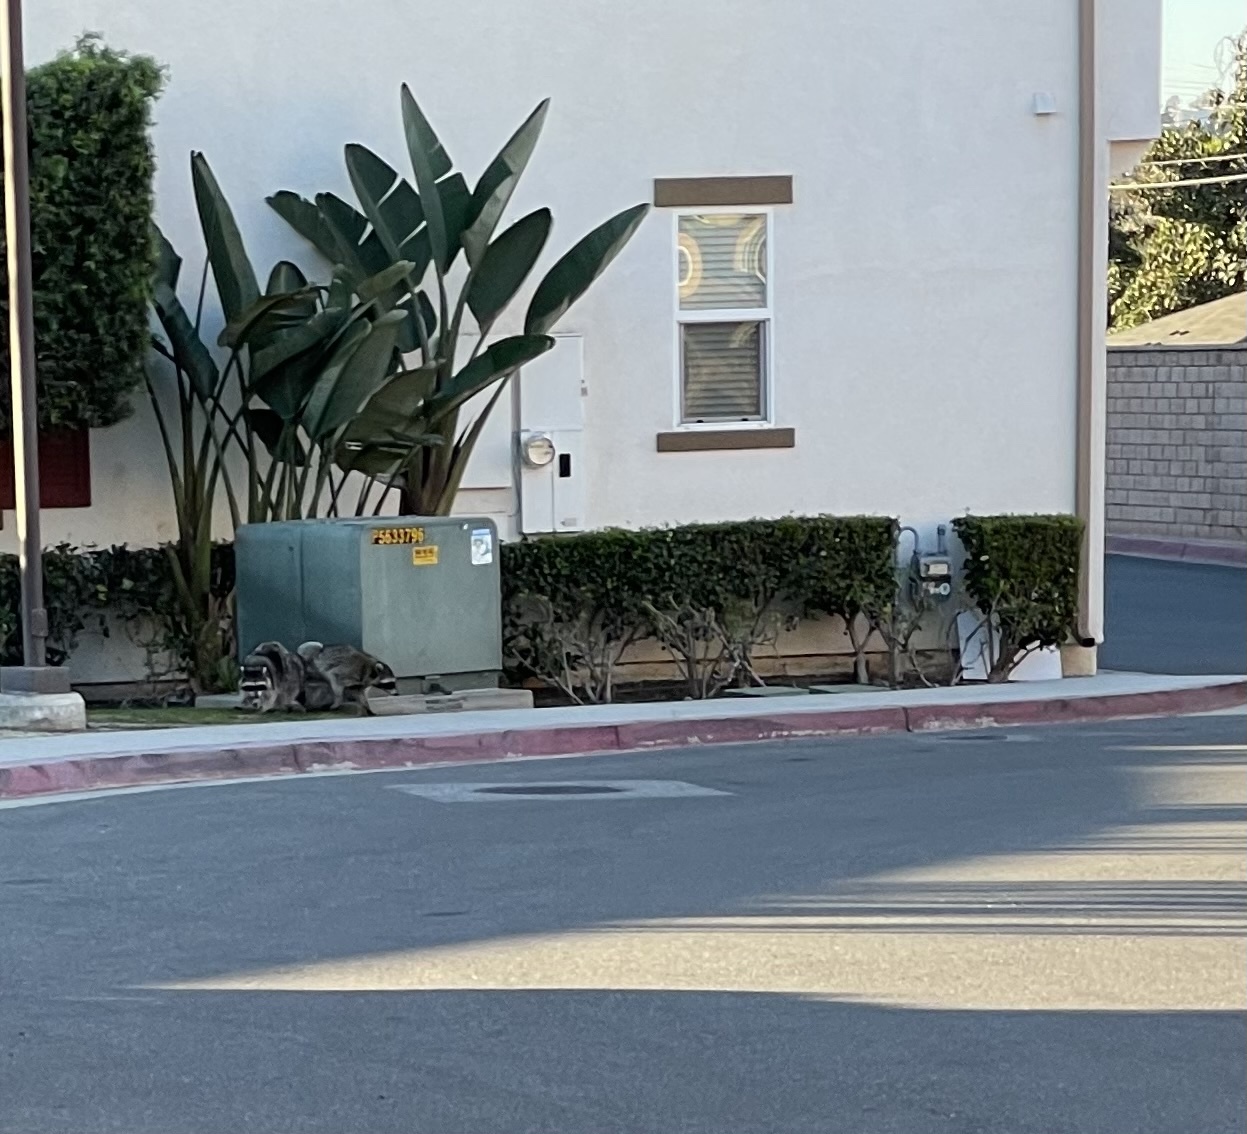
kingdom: Animalia
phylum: Chordata
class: Mammalia
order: Carnivora
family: Procyonidae
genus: Procyon
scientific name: Procyon lotor
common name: Raccoon
